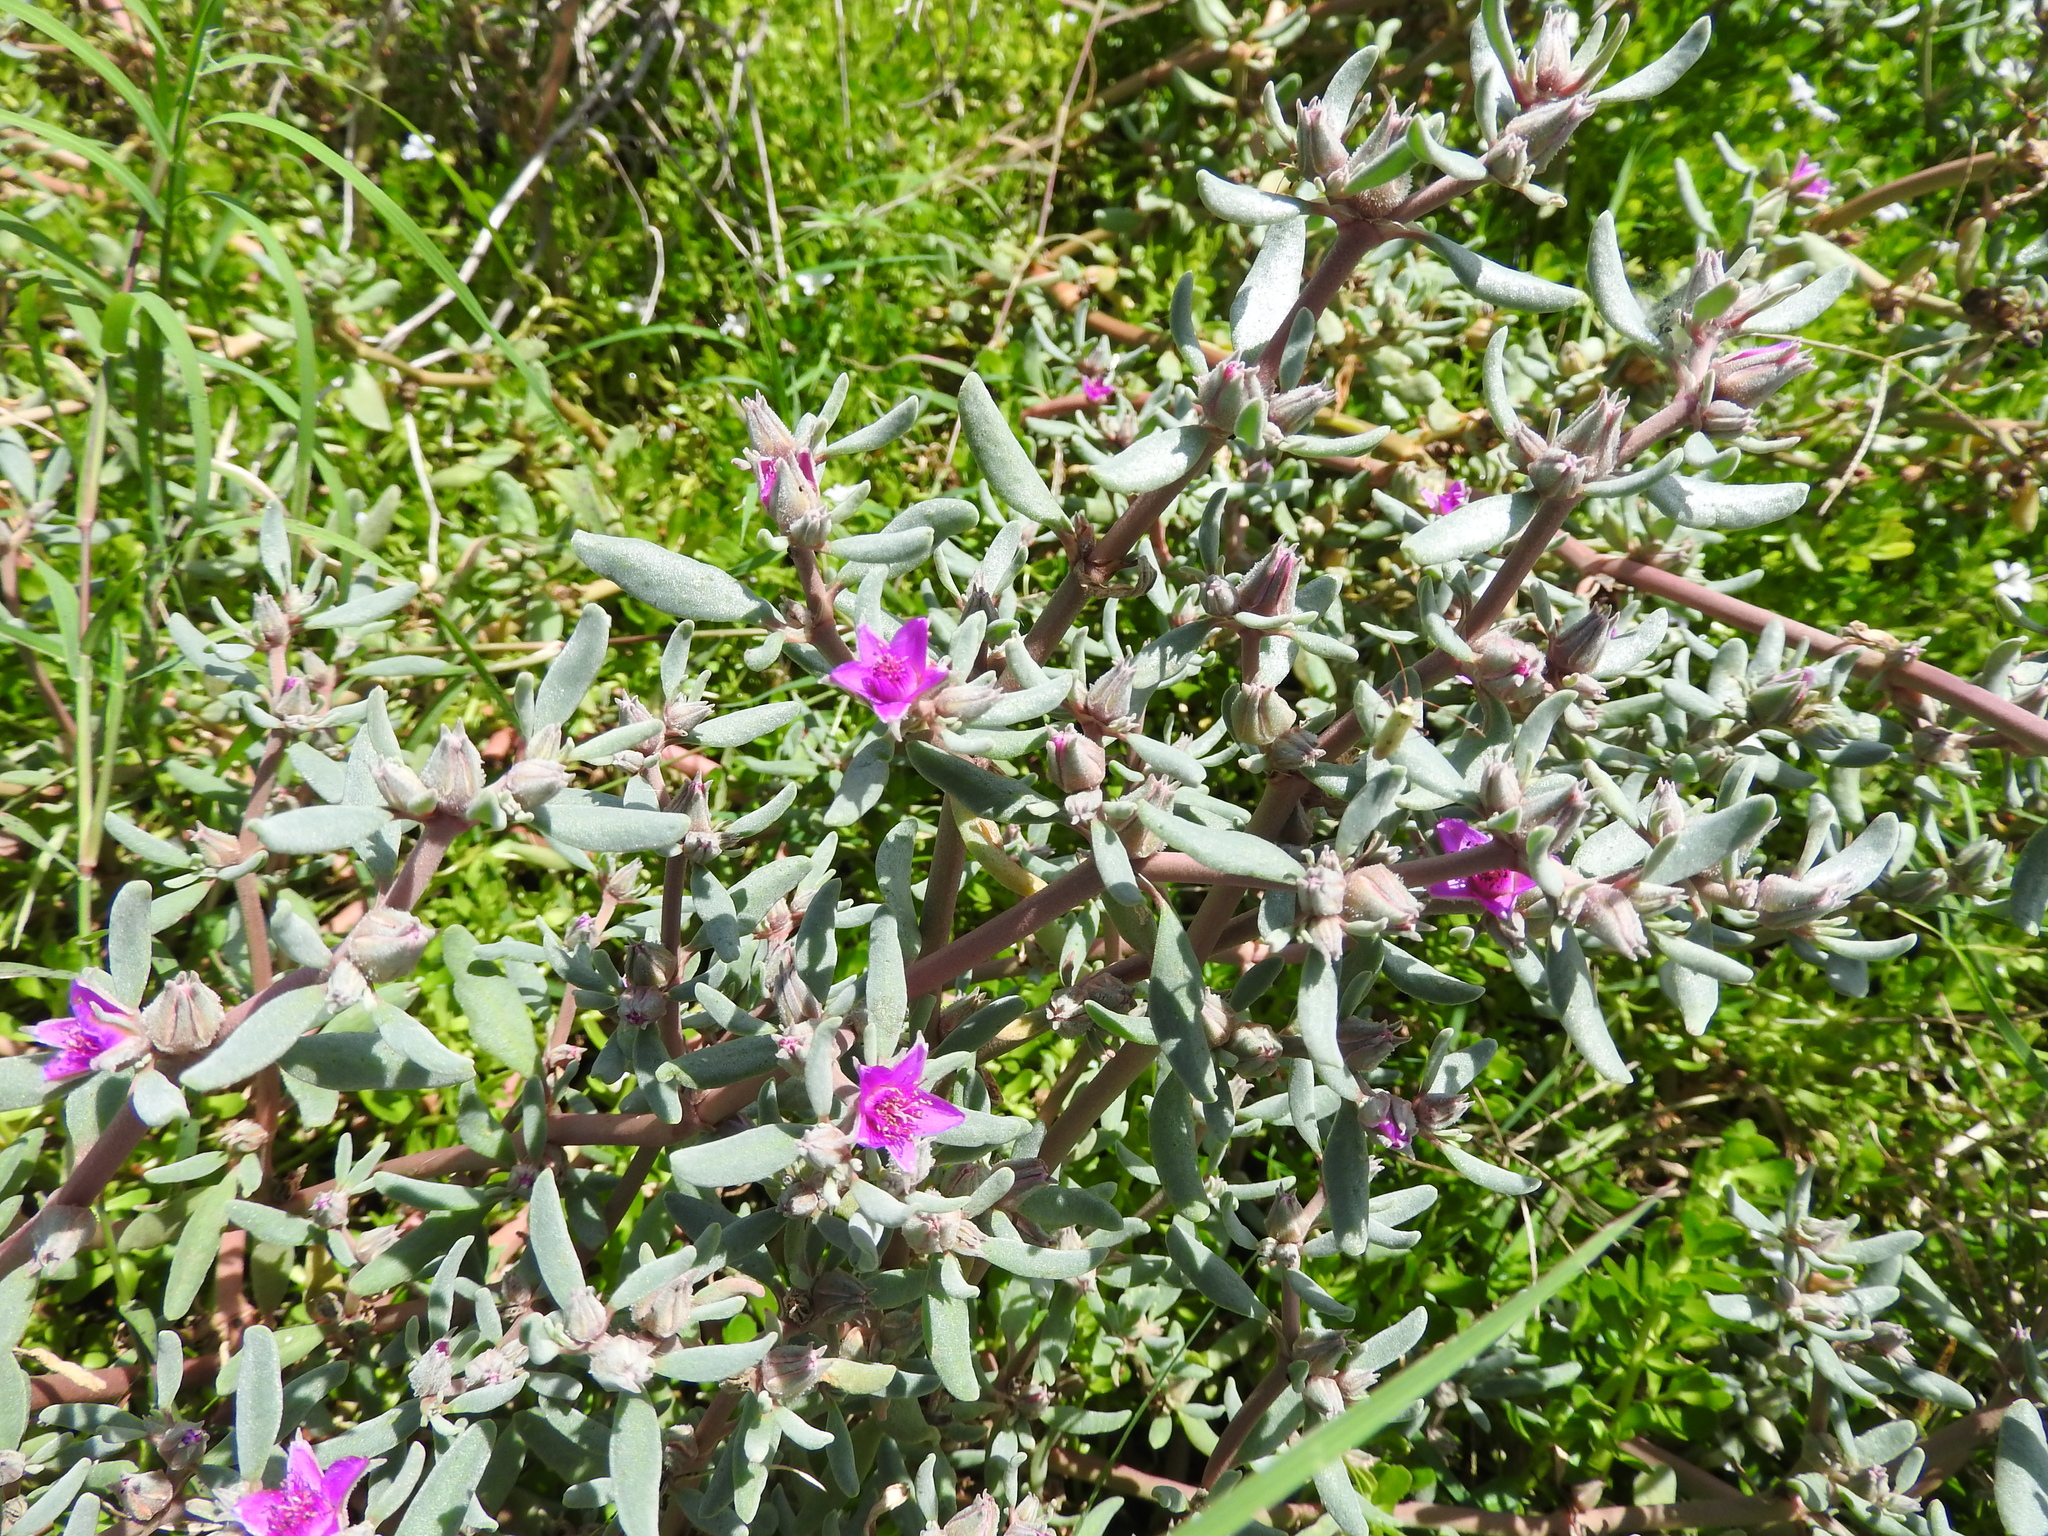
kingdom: Plantae
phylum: Tracheophyta
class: Magnoliopsida
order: Caryophyllales
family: Aizoaceae
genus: Sesuvium
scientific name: Sesuvium revolutifolium
